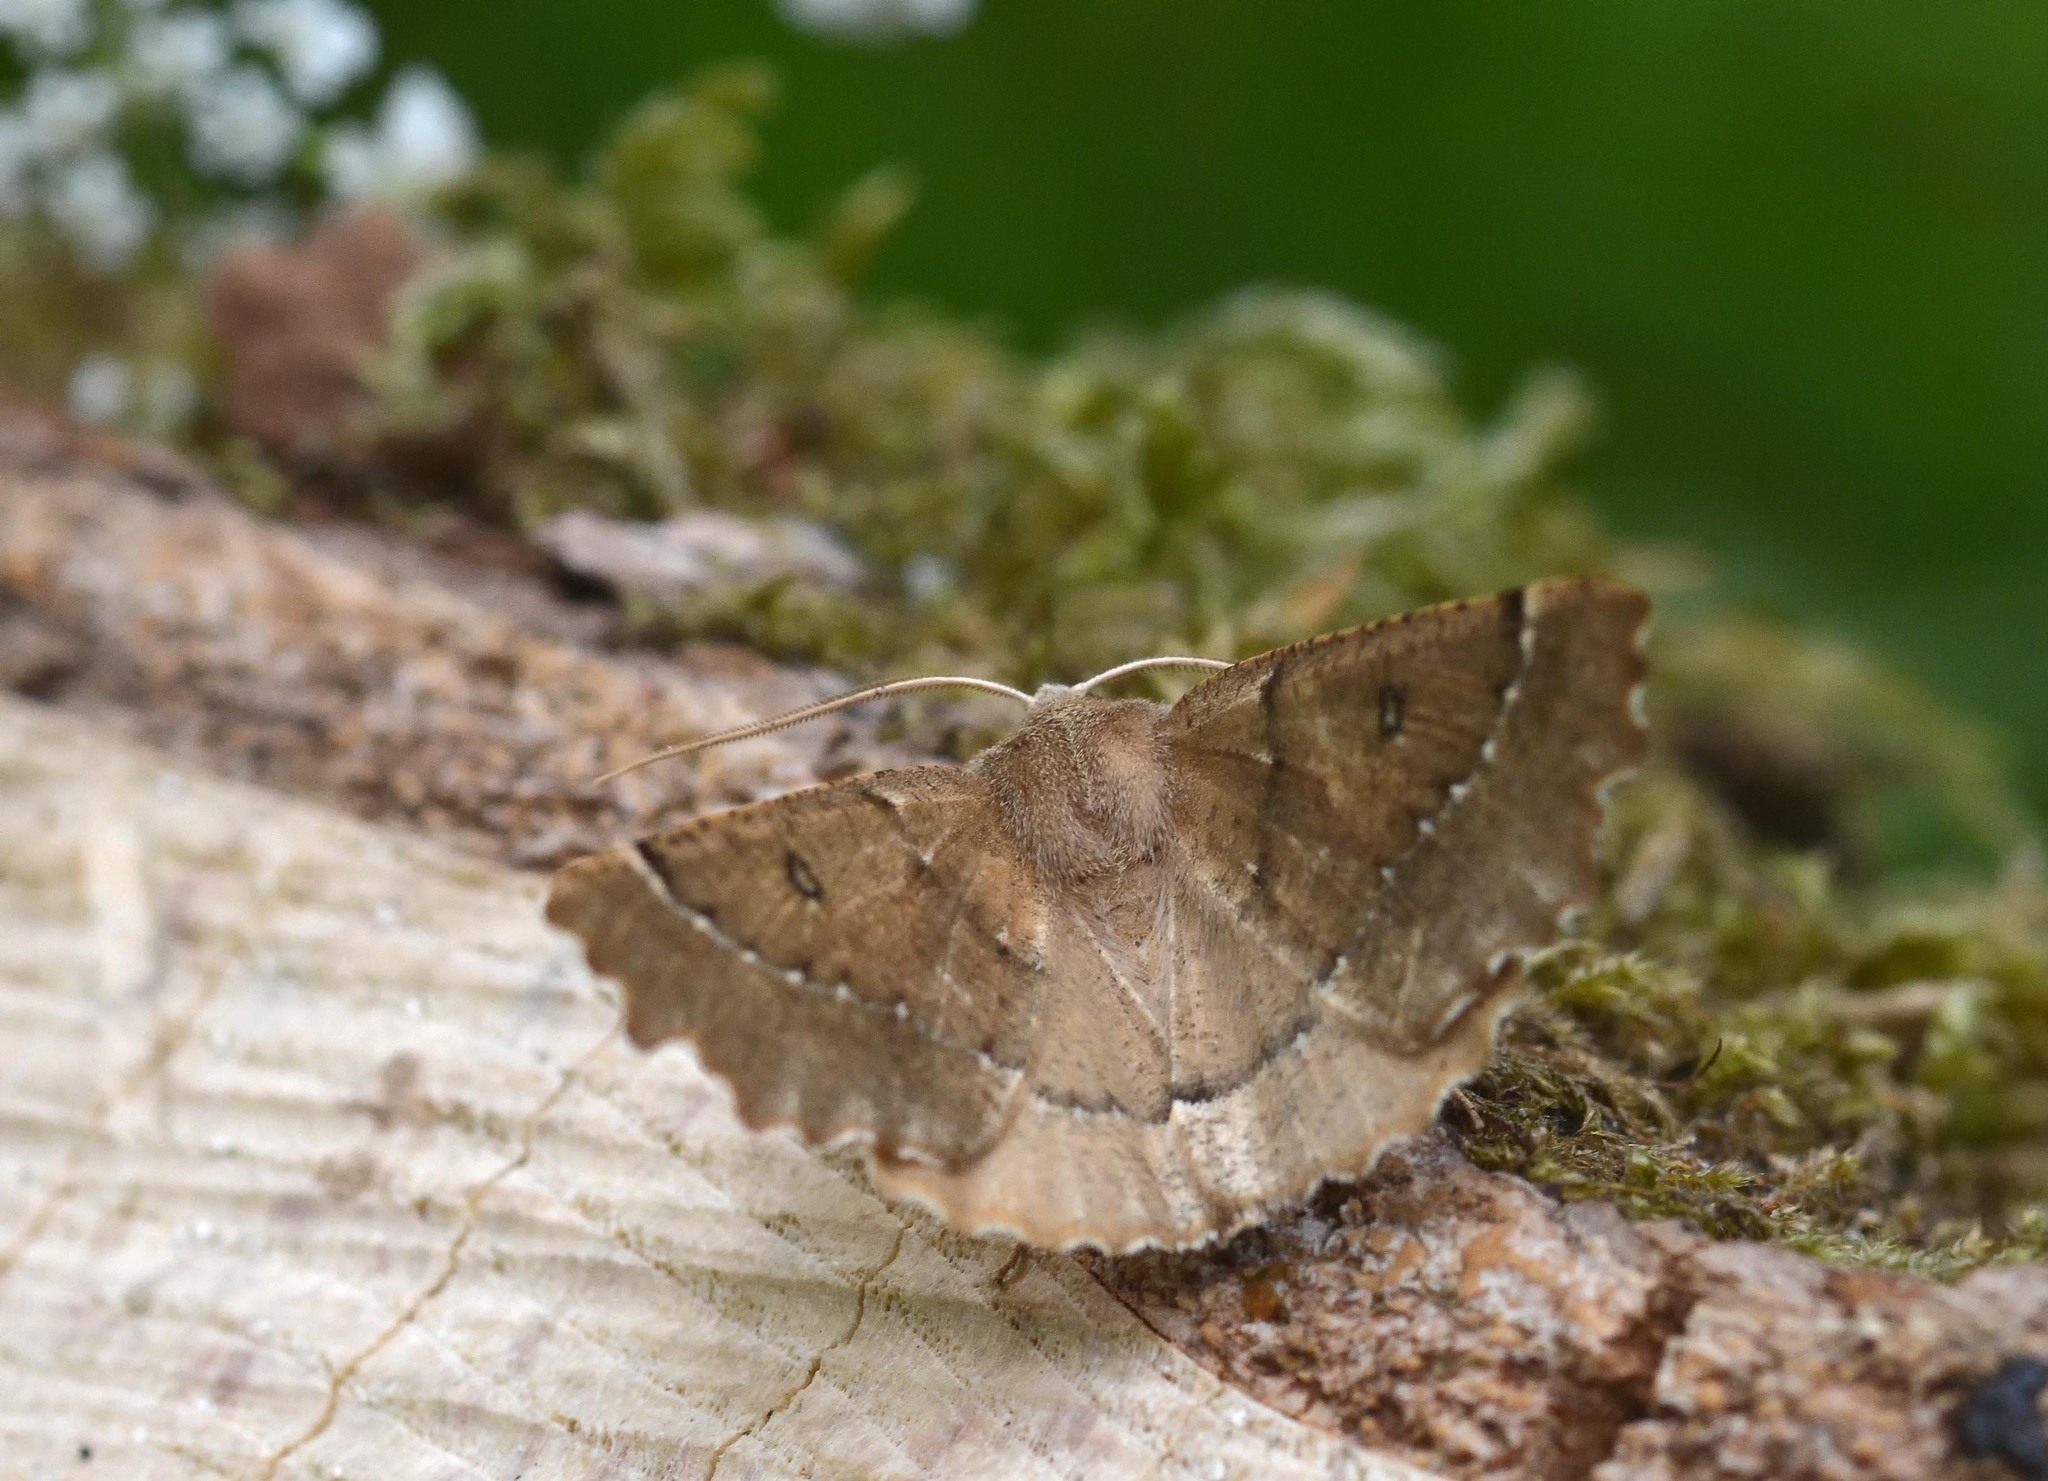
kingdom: Animalia
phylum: Arthropoda
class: Insecta
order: Lepidoptera
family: Geometridae
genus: Odontopera
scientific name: Odontopera bidentata
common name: Scalloped hazel
